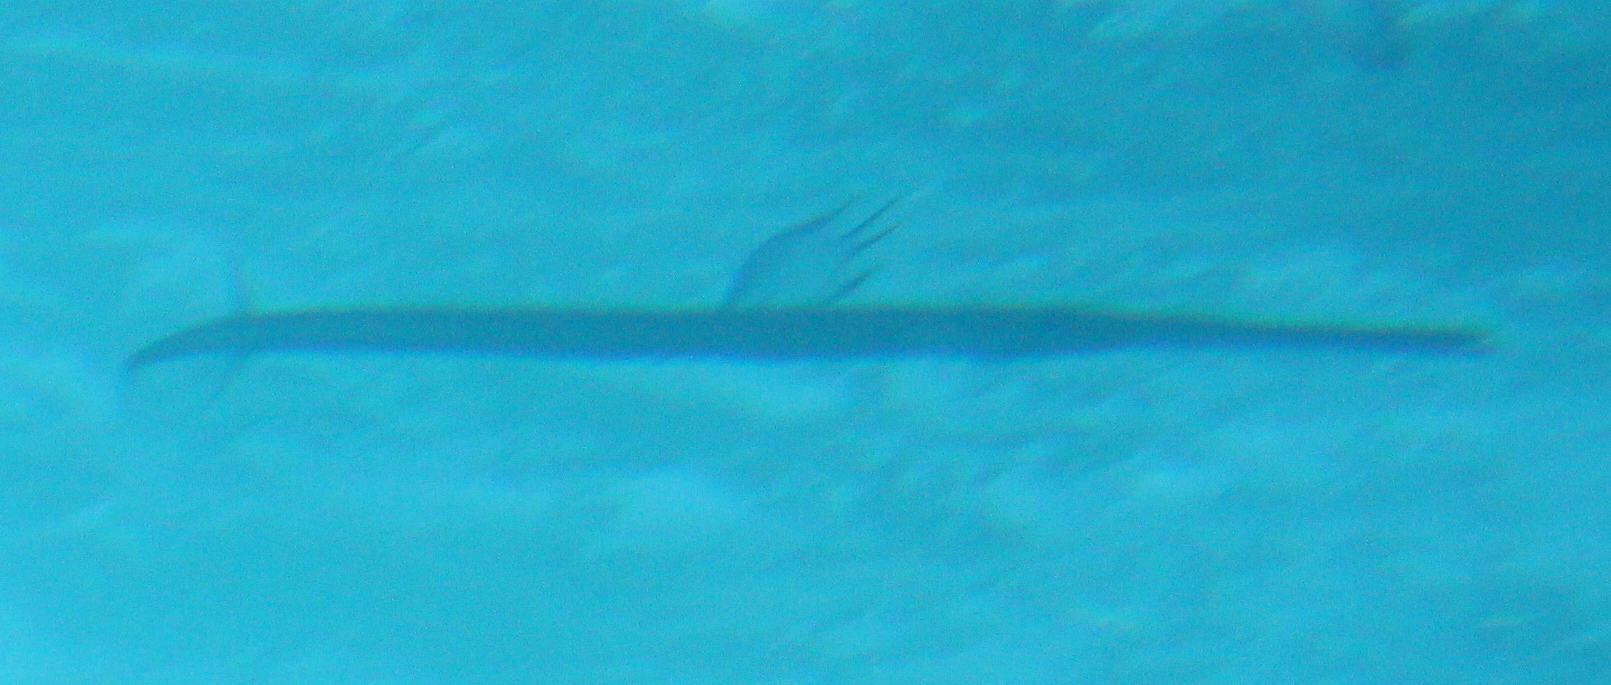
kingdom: Animalia
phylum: Chordata
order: Syngnathiformes
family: Fistulariidae
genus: Fistularia
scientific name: Fistularia commersonii
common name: Bluespotted cornetfish
